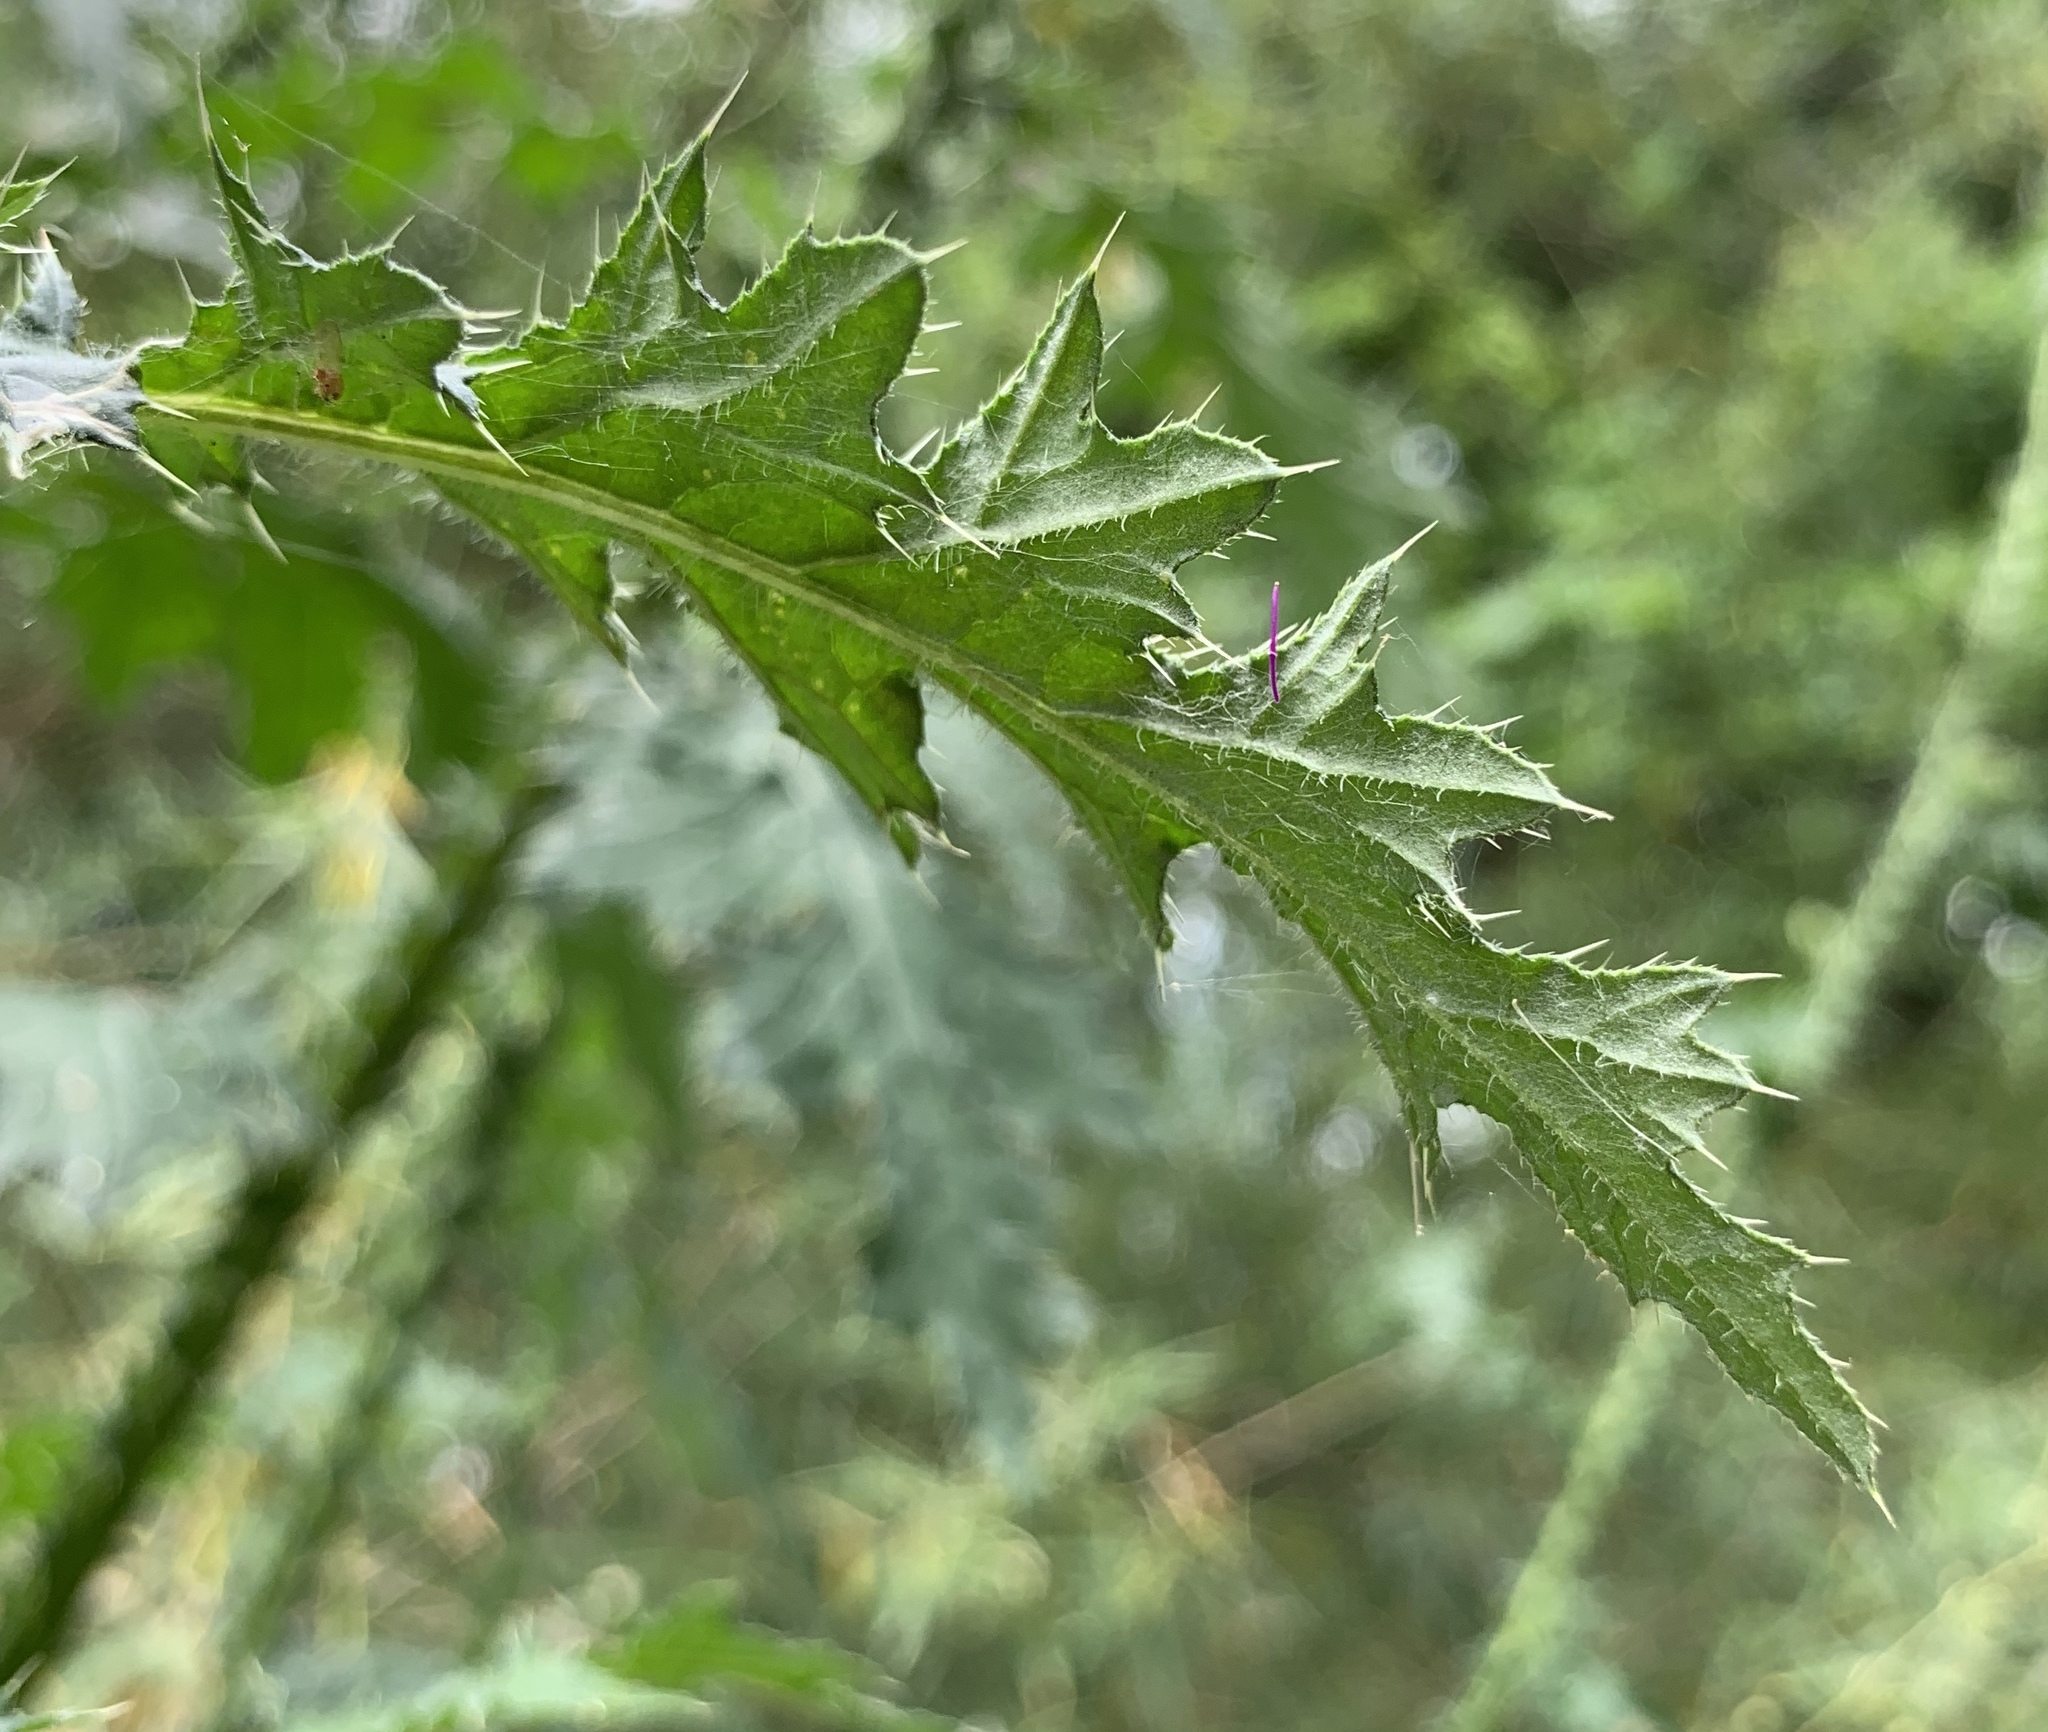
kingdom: Plantae
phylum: Tracheophyta
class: Magnoliopsida
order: Asterales
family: Asteraceae
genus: Carduus
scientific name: Carduus crispus
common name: Welted thistle
